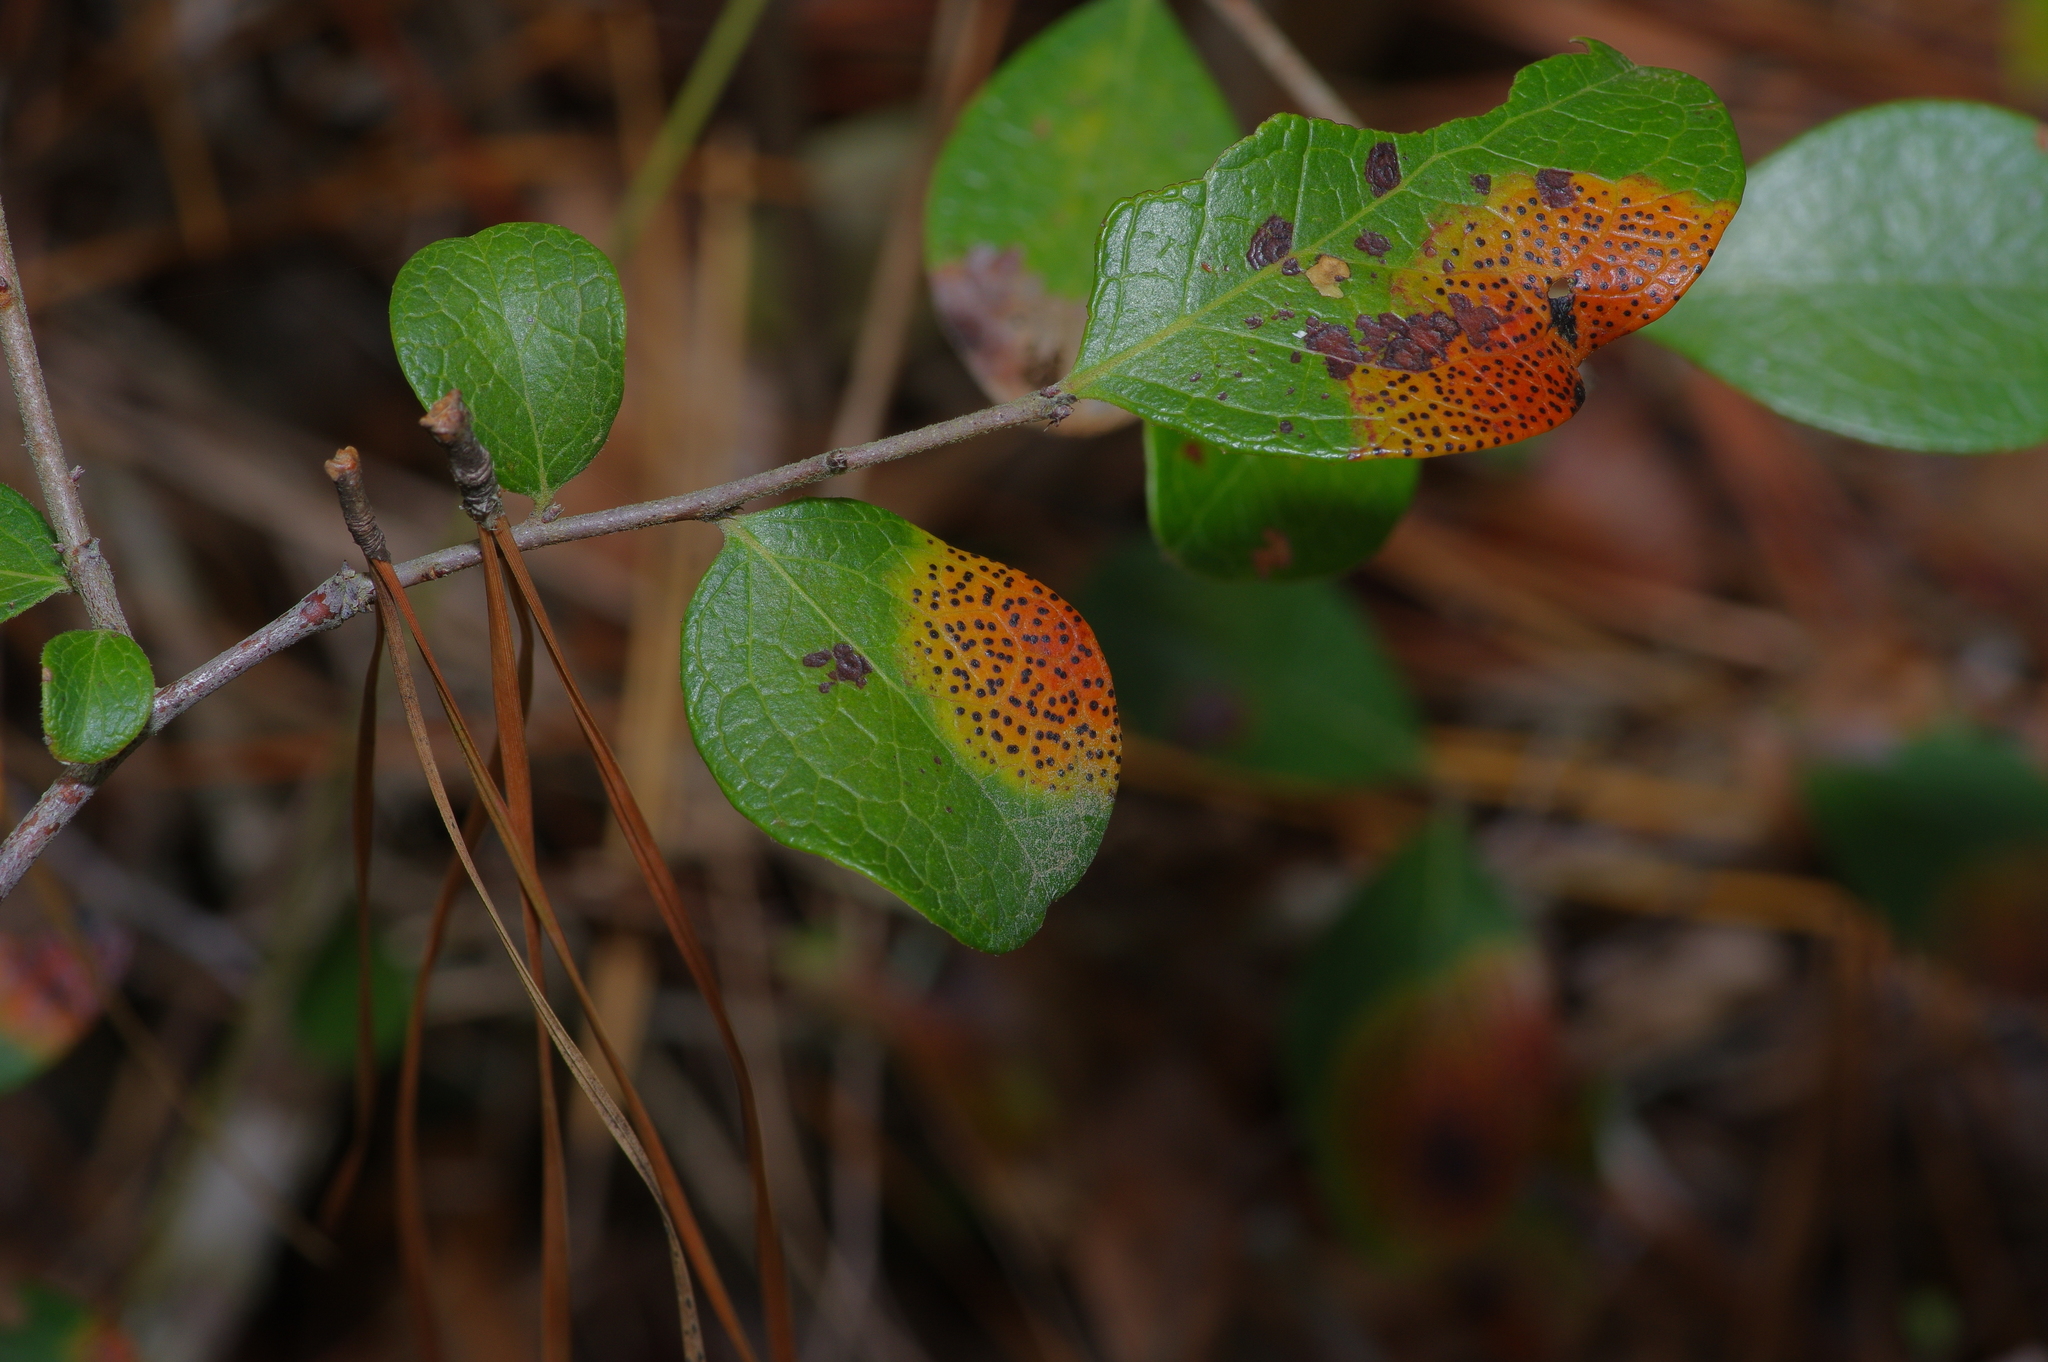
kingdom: Plantae
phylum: Tracheophyta
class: Magnoliopsida
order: Ericales
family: Ericaceae
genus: Vaccinium
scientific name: Vaccinium arboreum
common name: Farkleberry
